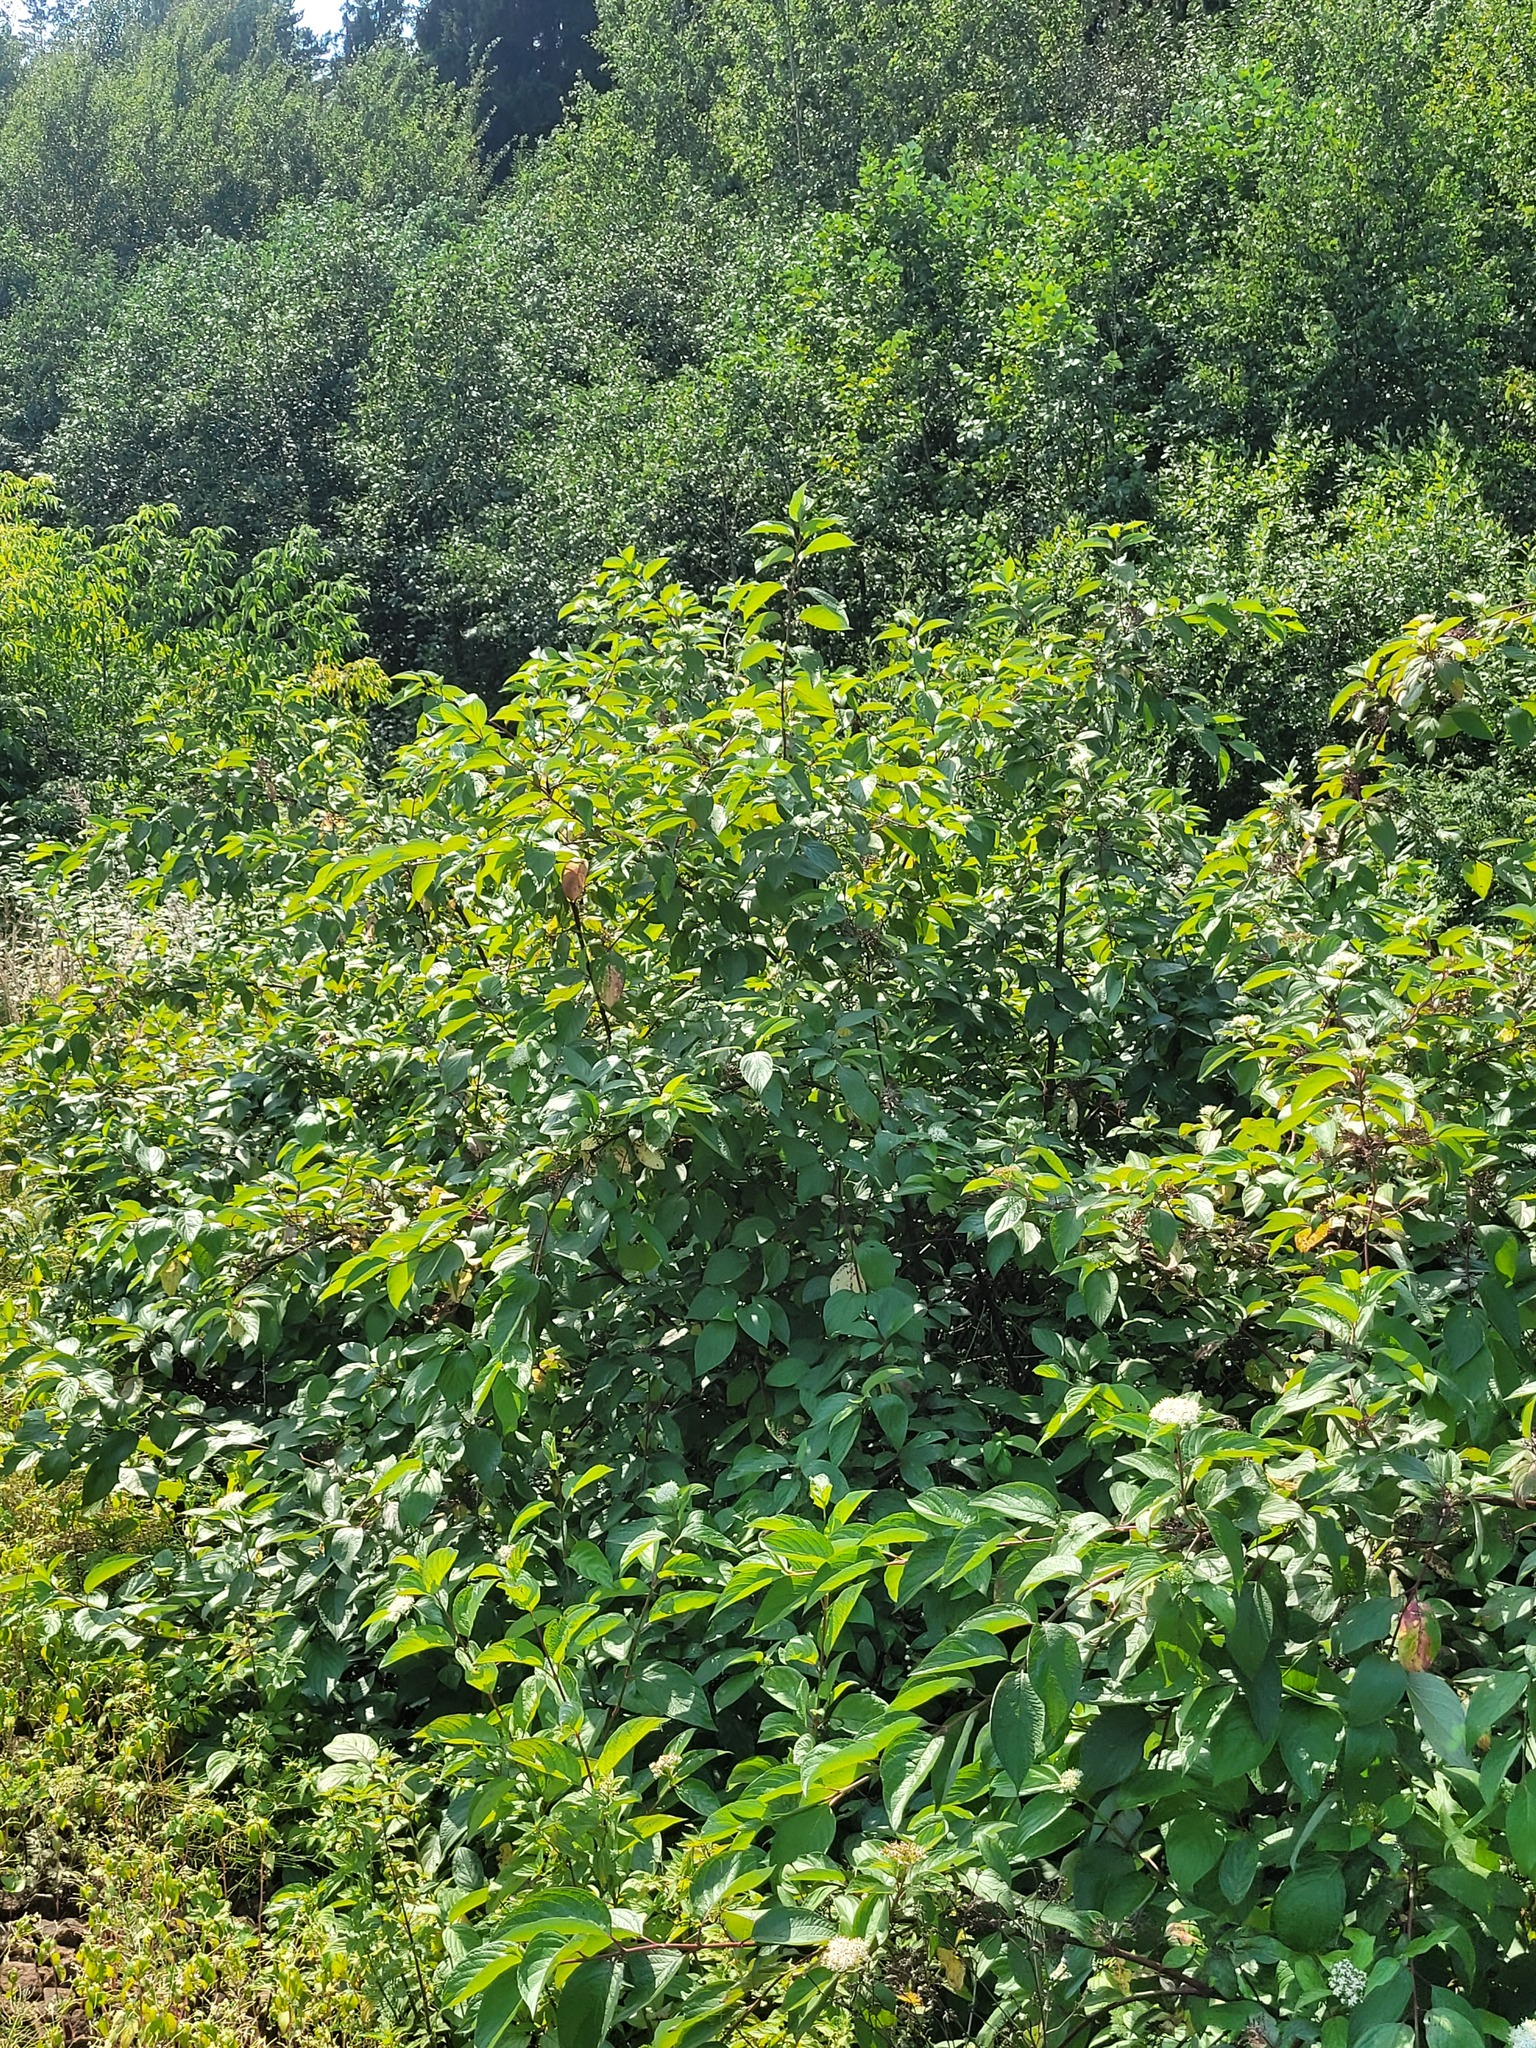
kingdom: Plantae
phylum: Tracheophyta
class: Magnoliopsida
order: Cornales
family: Cornaceae
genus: Cornus
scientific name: Cornus alba
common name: White dogwood
